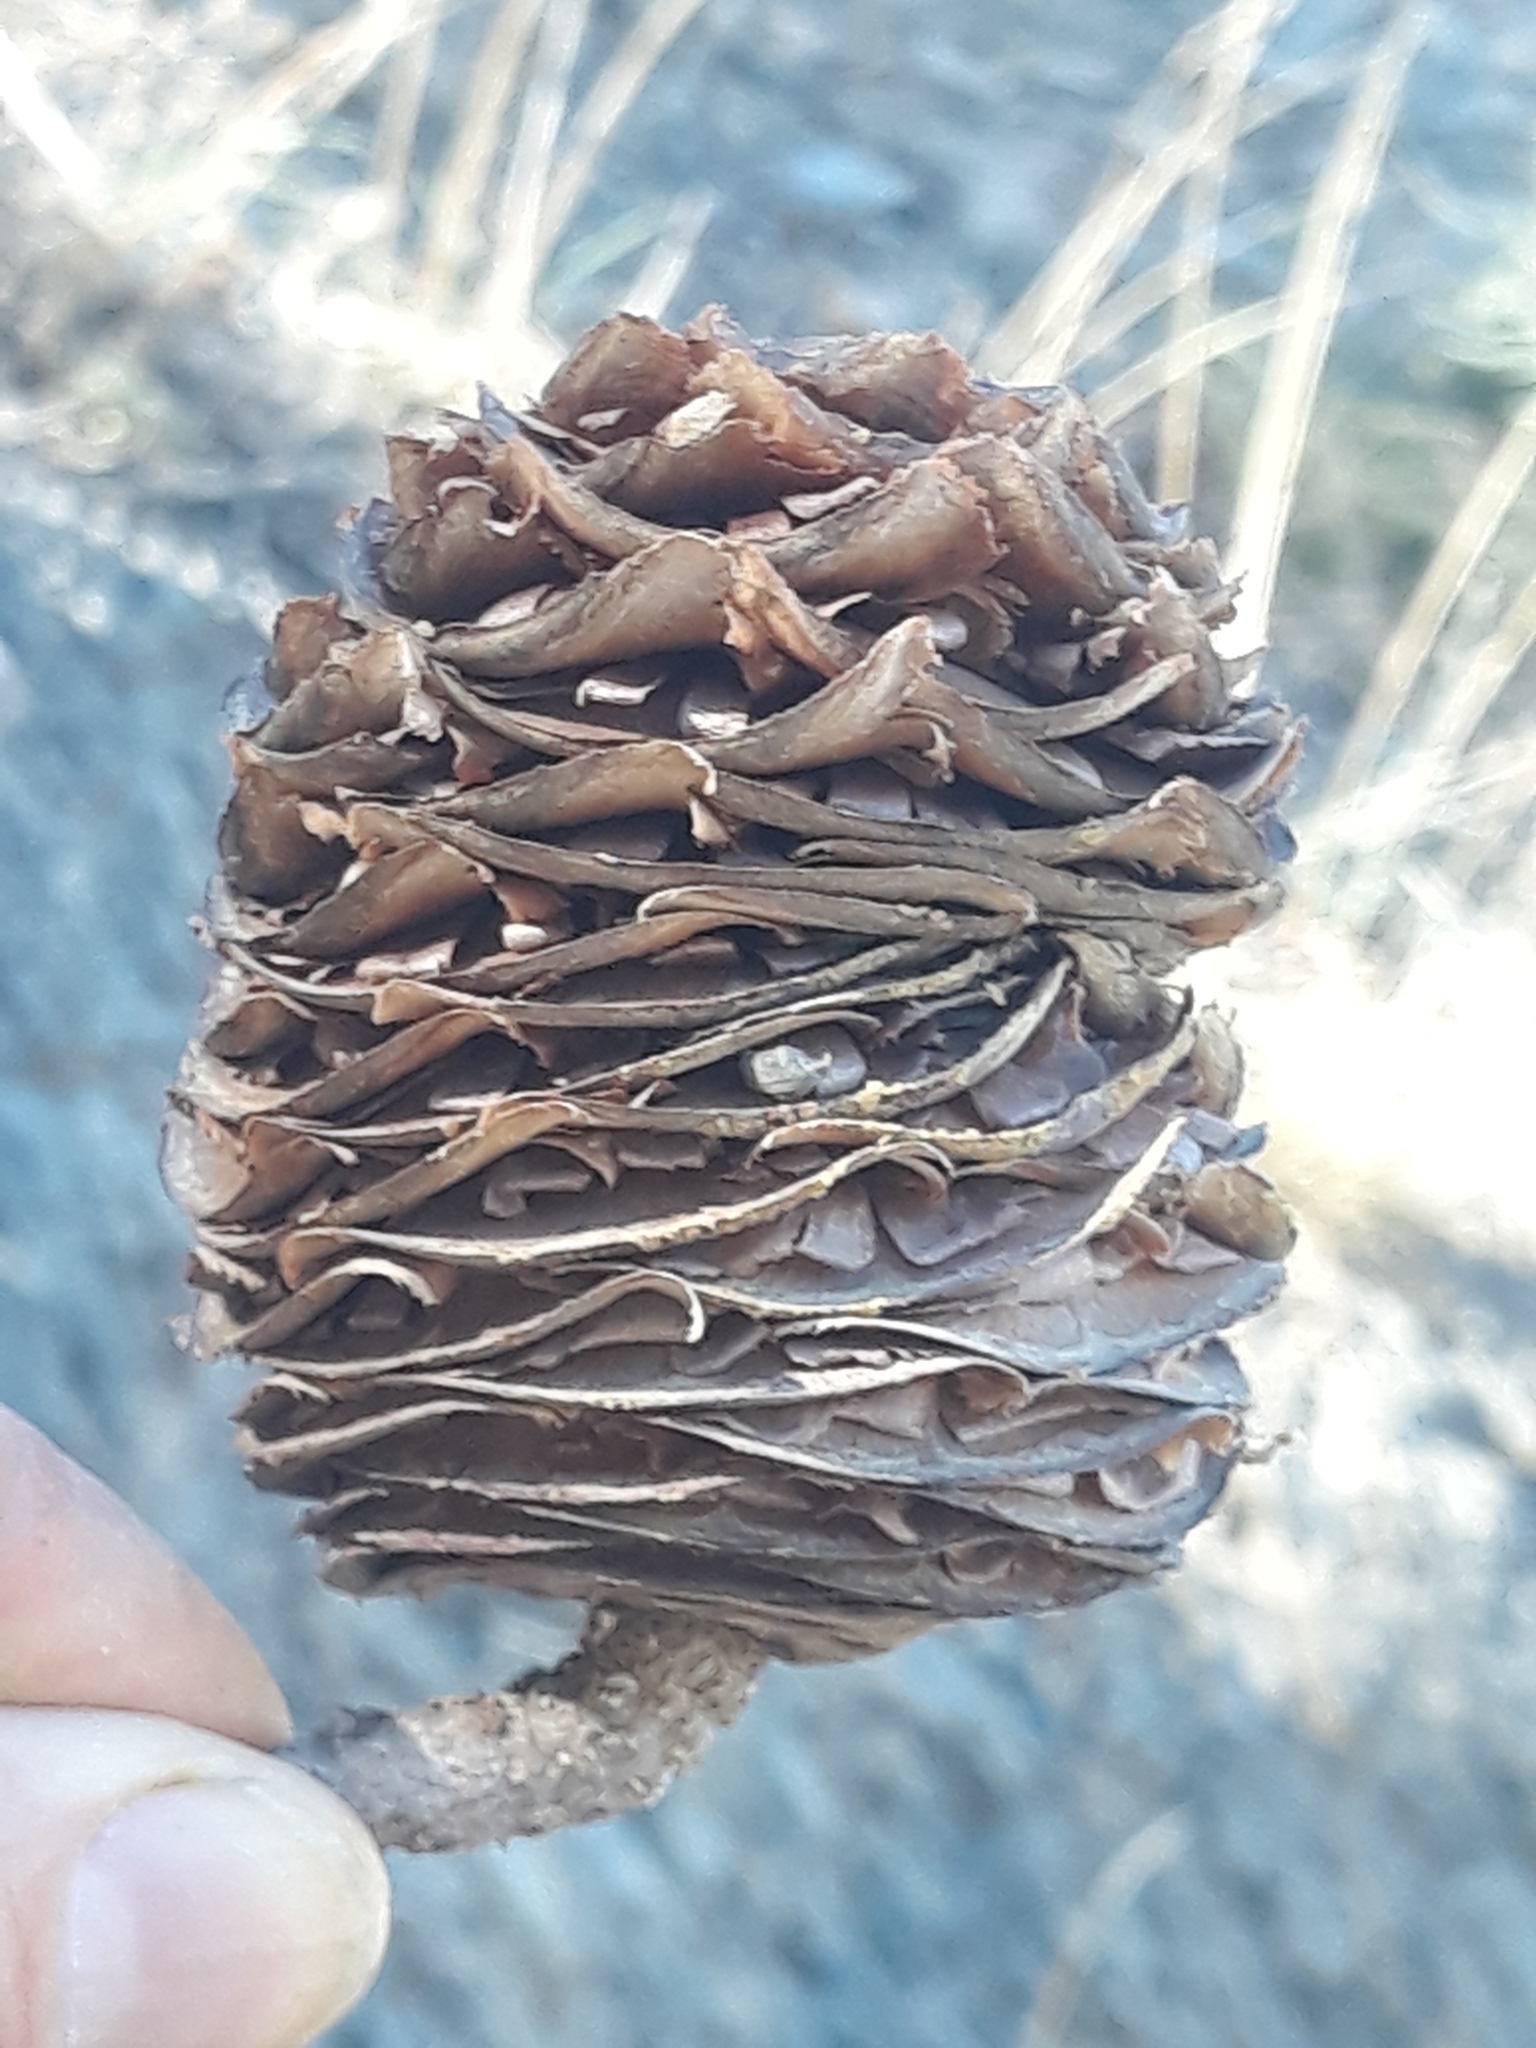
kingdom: Plantae
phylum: Tracheophyta
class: Pinopsida
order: Pinales
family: Pinaceae
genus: Cedrus
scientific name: Cedrus atlantica
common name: Atlas cedar
